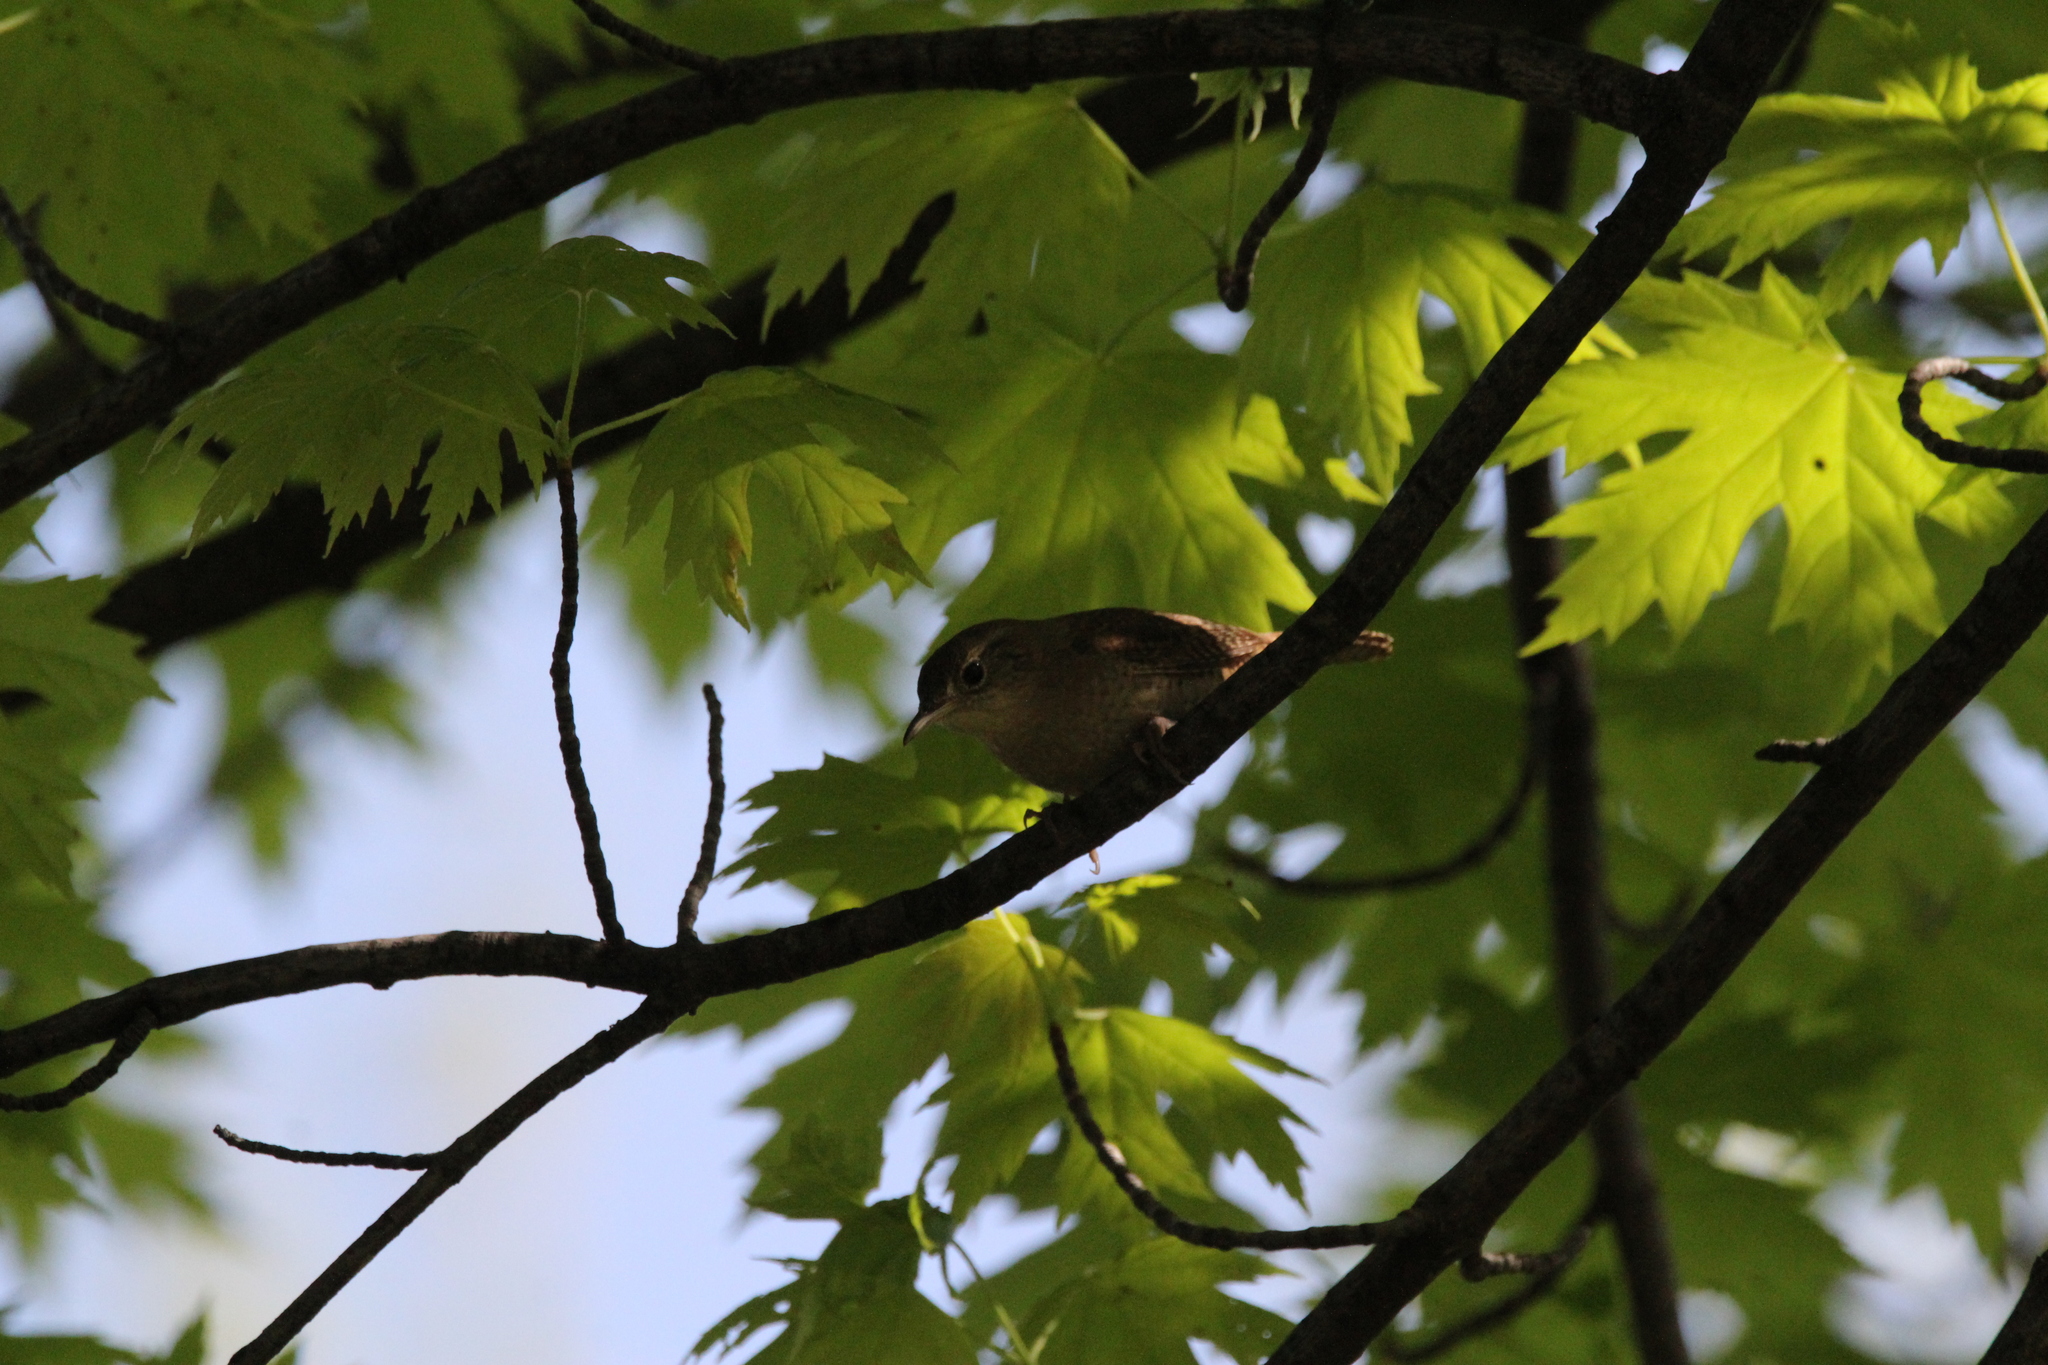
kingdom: Animalia
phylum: Chordata
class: Aves
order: Passeriformes
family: Troglodytidae
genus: Troglodytes
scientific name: Troglodytes aedon
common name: House wren
